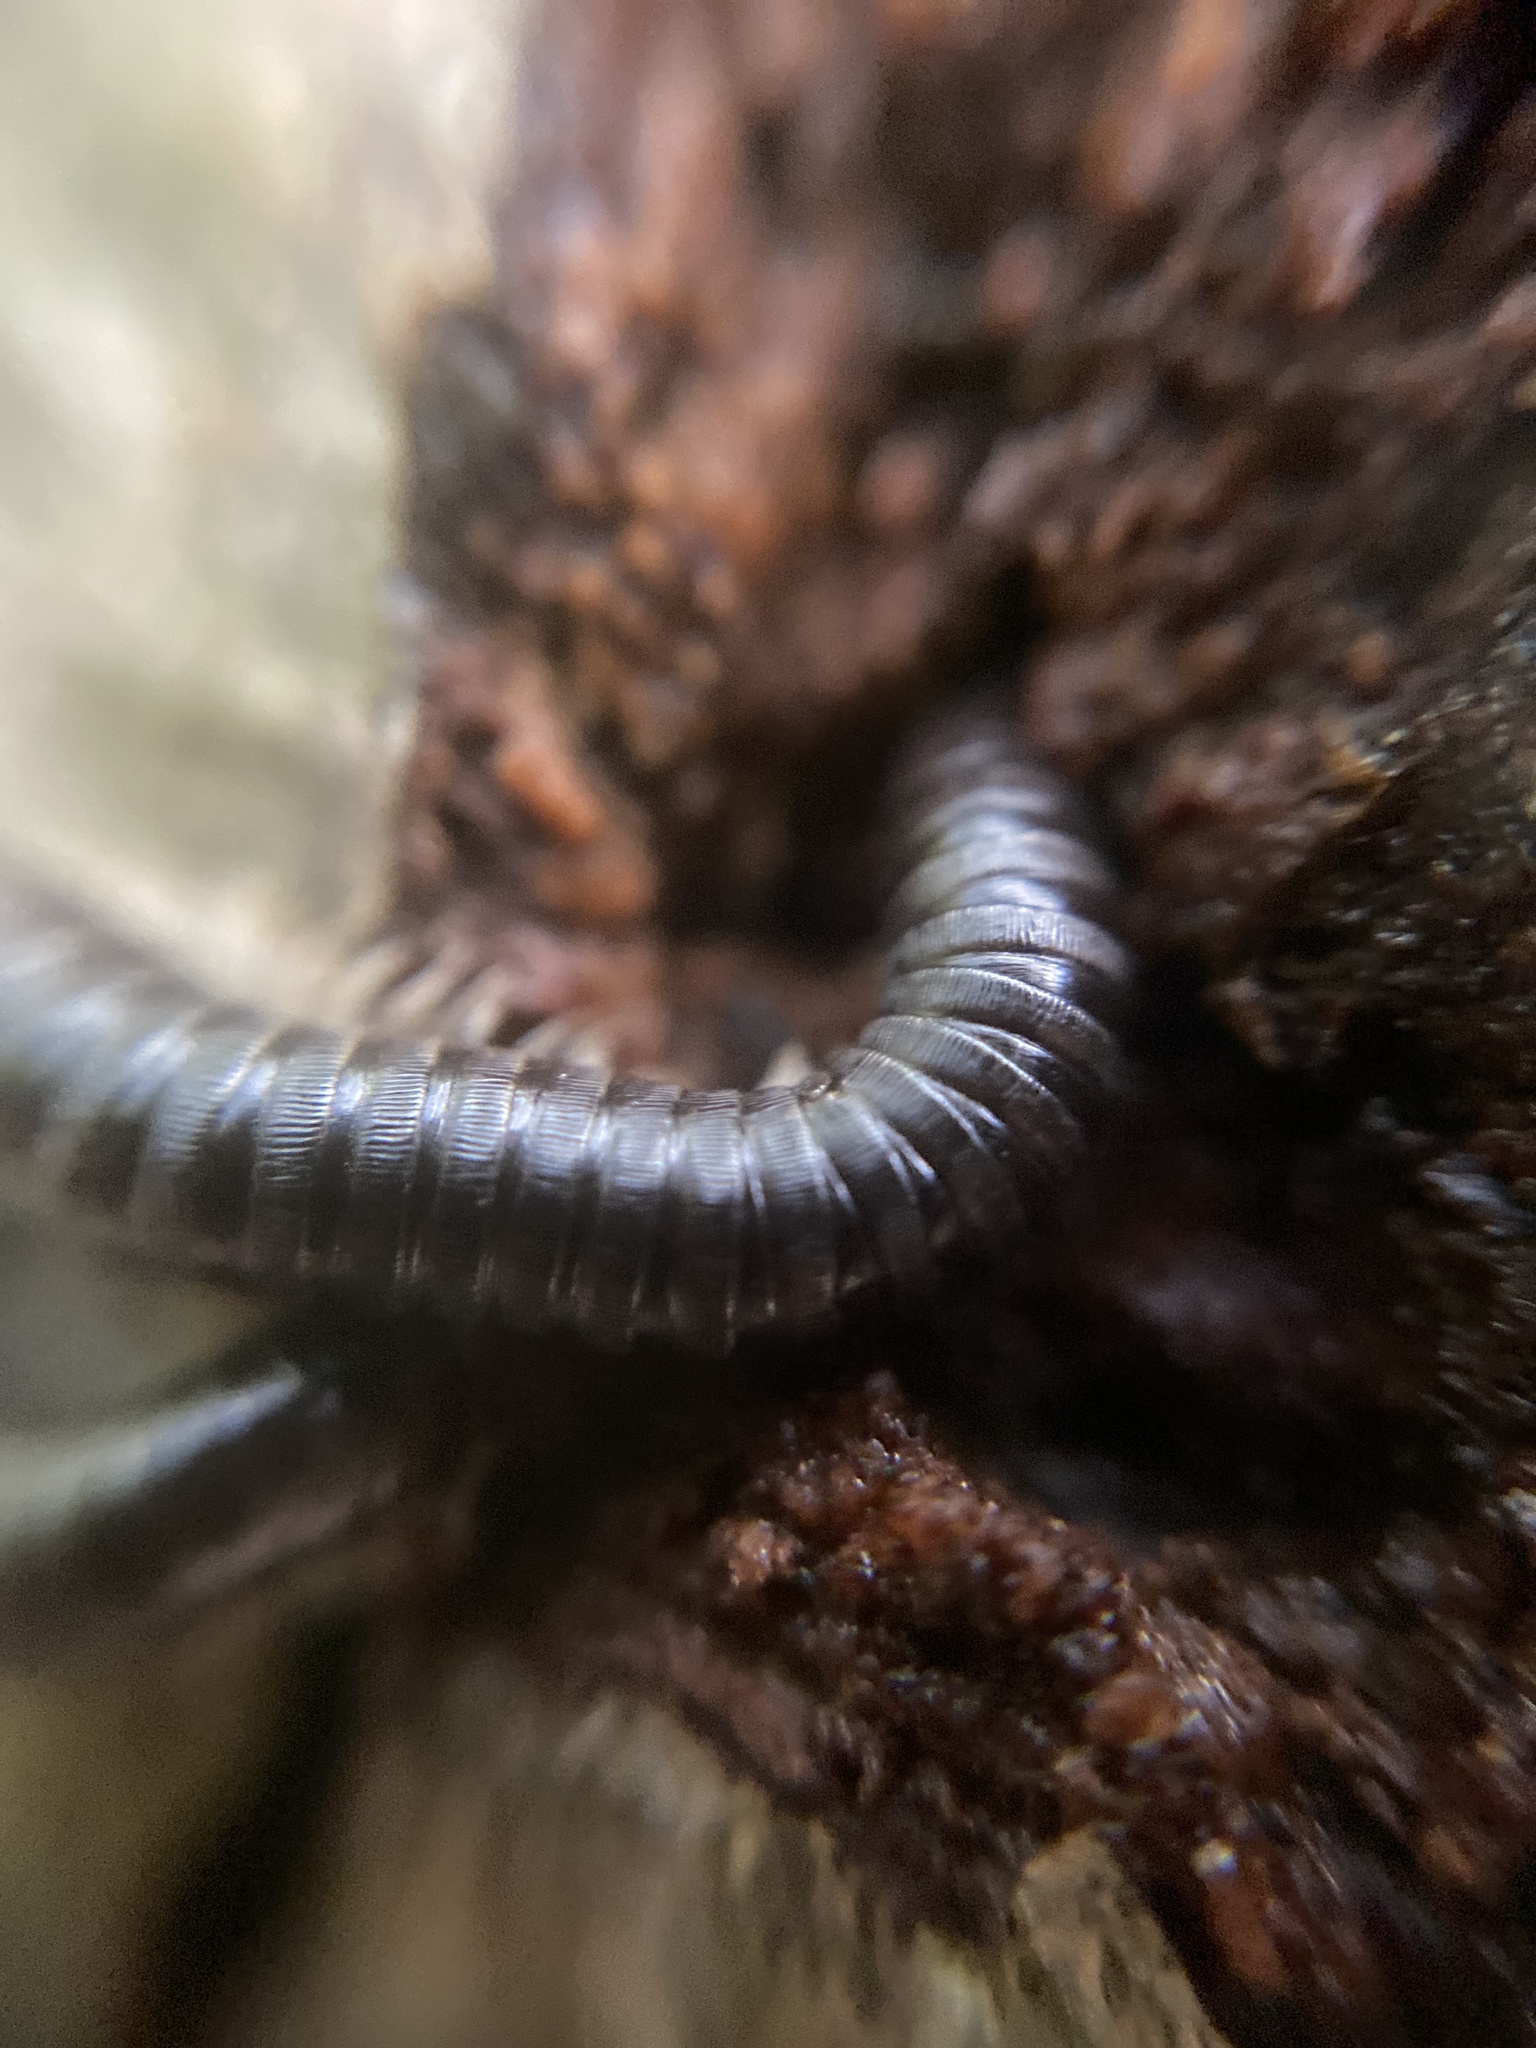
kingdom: Animalia
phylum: Arthropoda
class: Diplopoda
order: Julida
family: Julidae
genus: Tachypodoiulus
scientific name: Tachypodoiulus niger
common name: White-legged snake millipede
